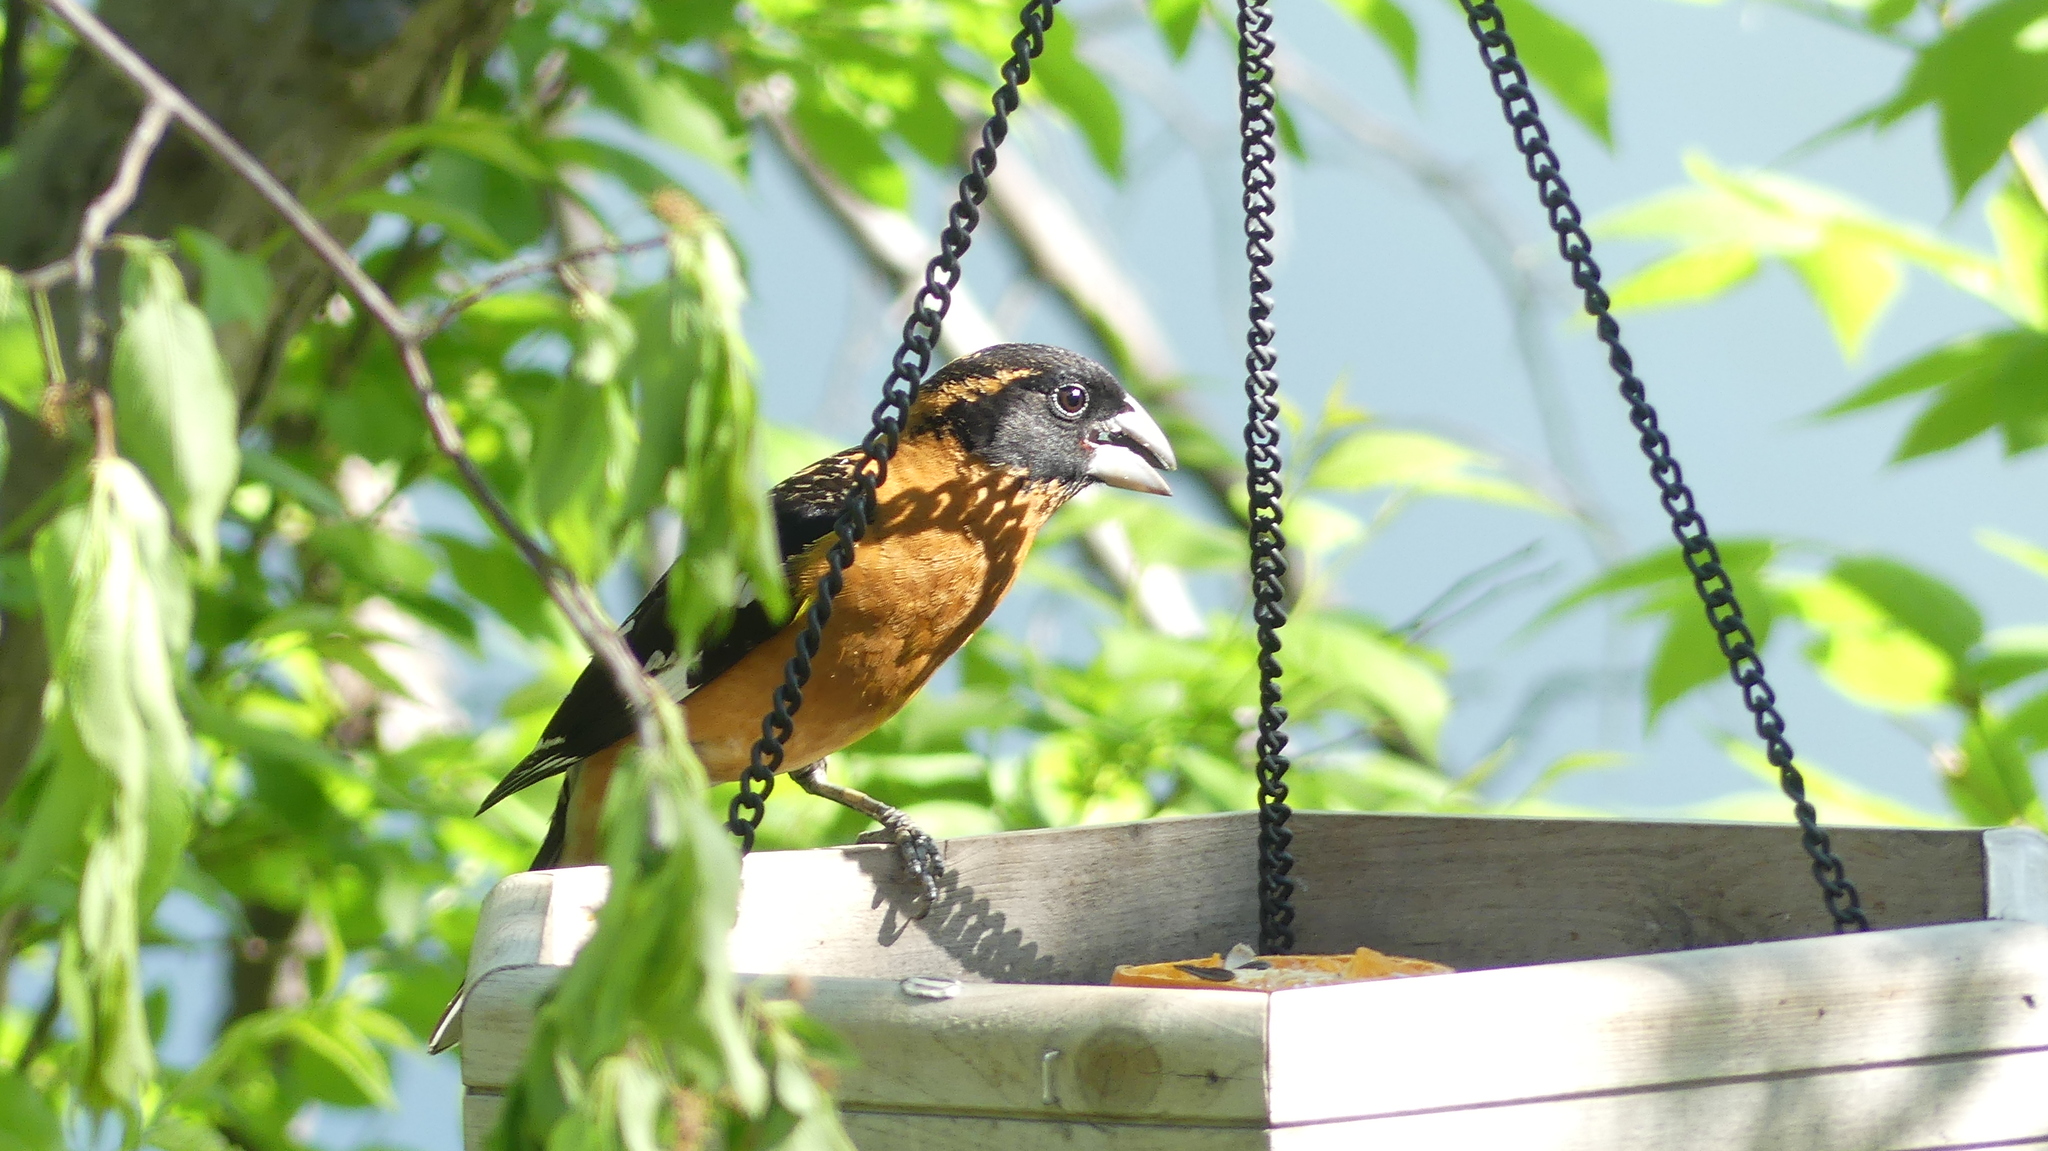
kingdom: Animalia
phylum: Chordata
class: Aves
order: Passeriformes
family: Cardinalidae
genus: Pheucticus
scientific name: Pheucticus melanocephalus
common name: Black-headed grosbeak
